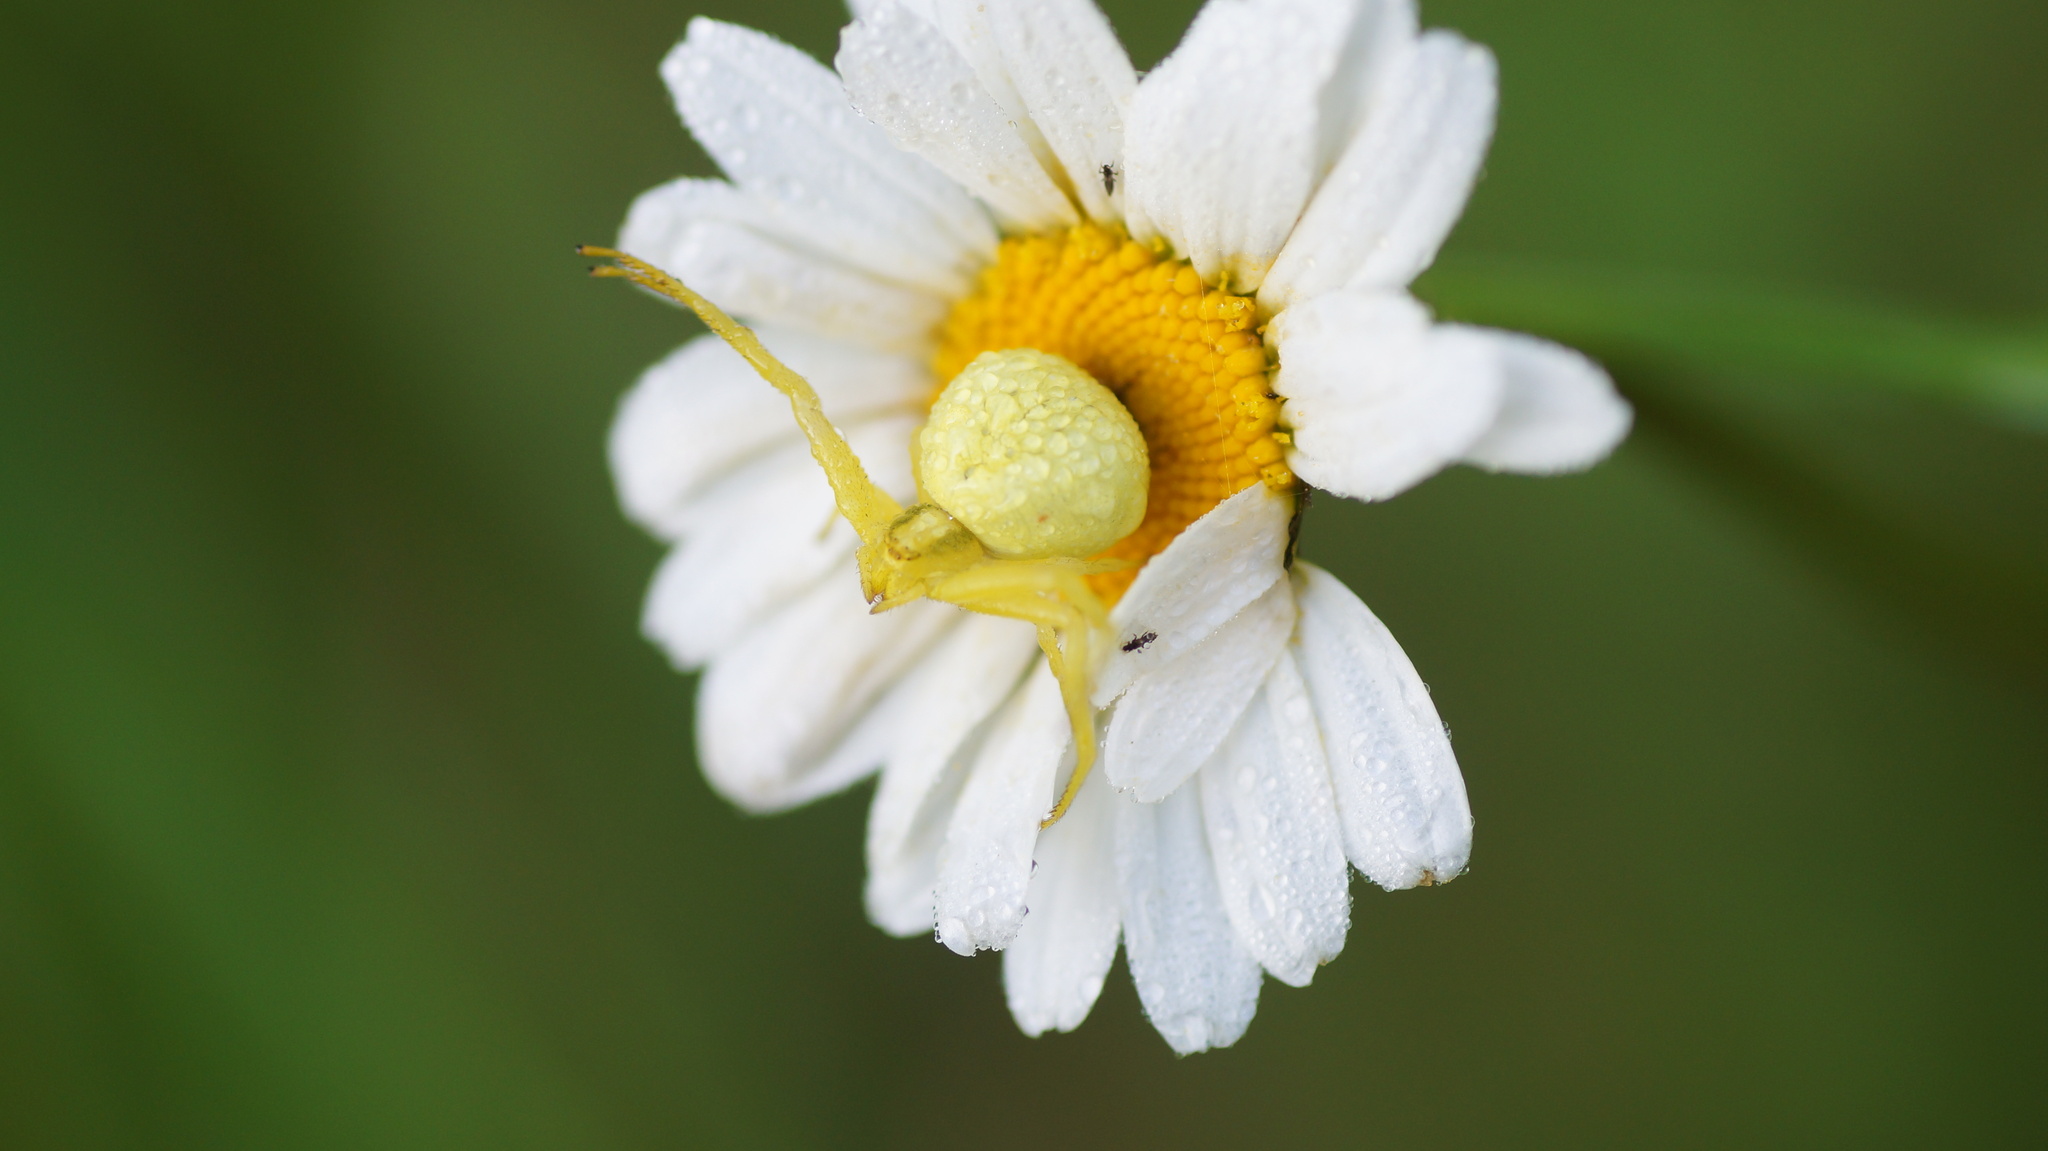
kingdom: Animalia
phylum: Arthropoda
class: Arachnida
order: Araneae
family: Thomisidae
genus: Misumena
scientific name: Misumena vatia
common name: Goldenrod crab spider
